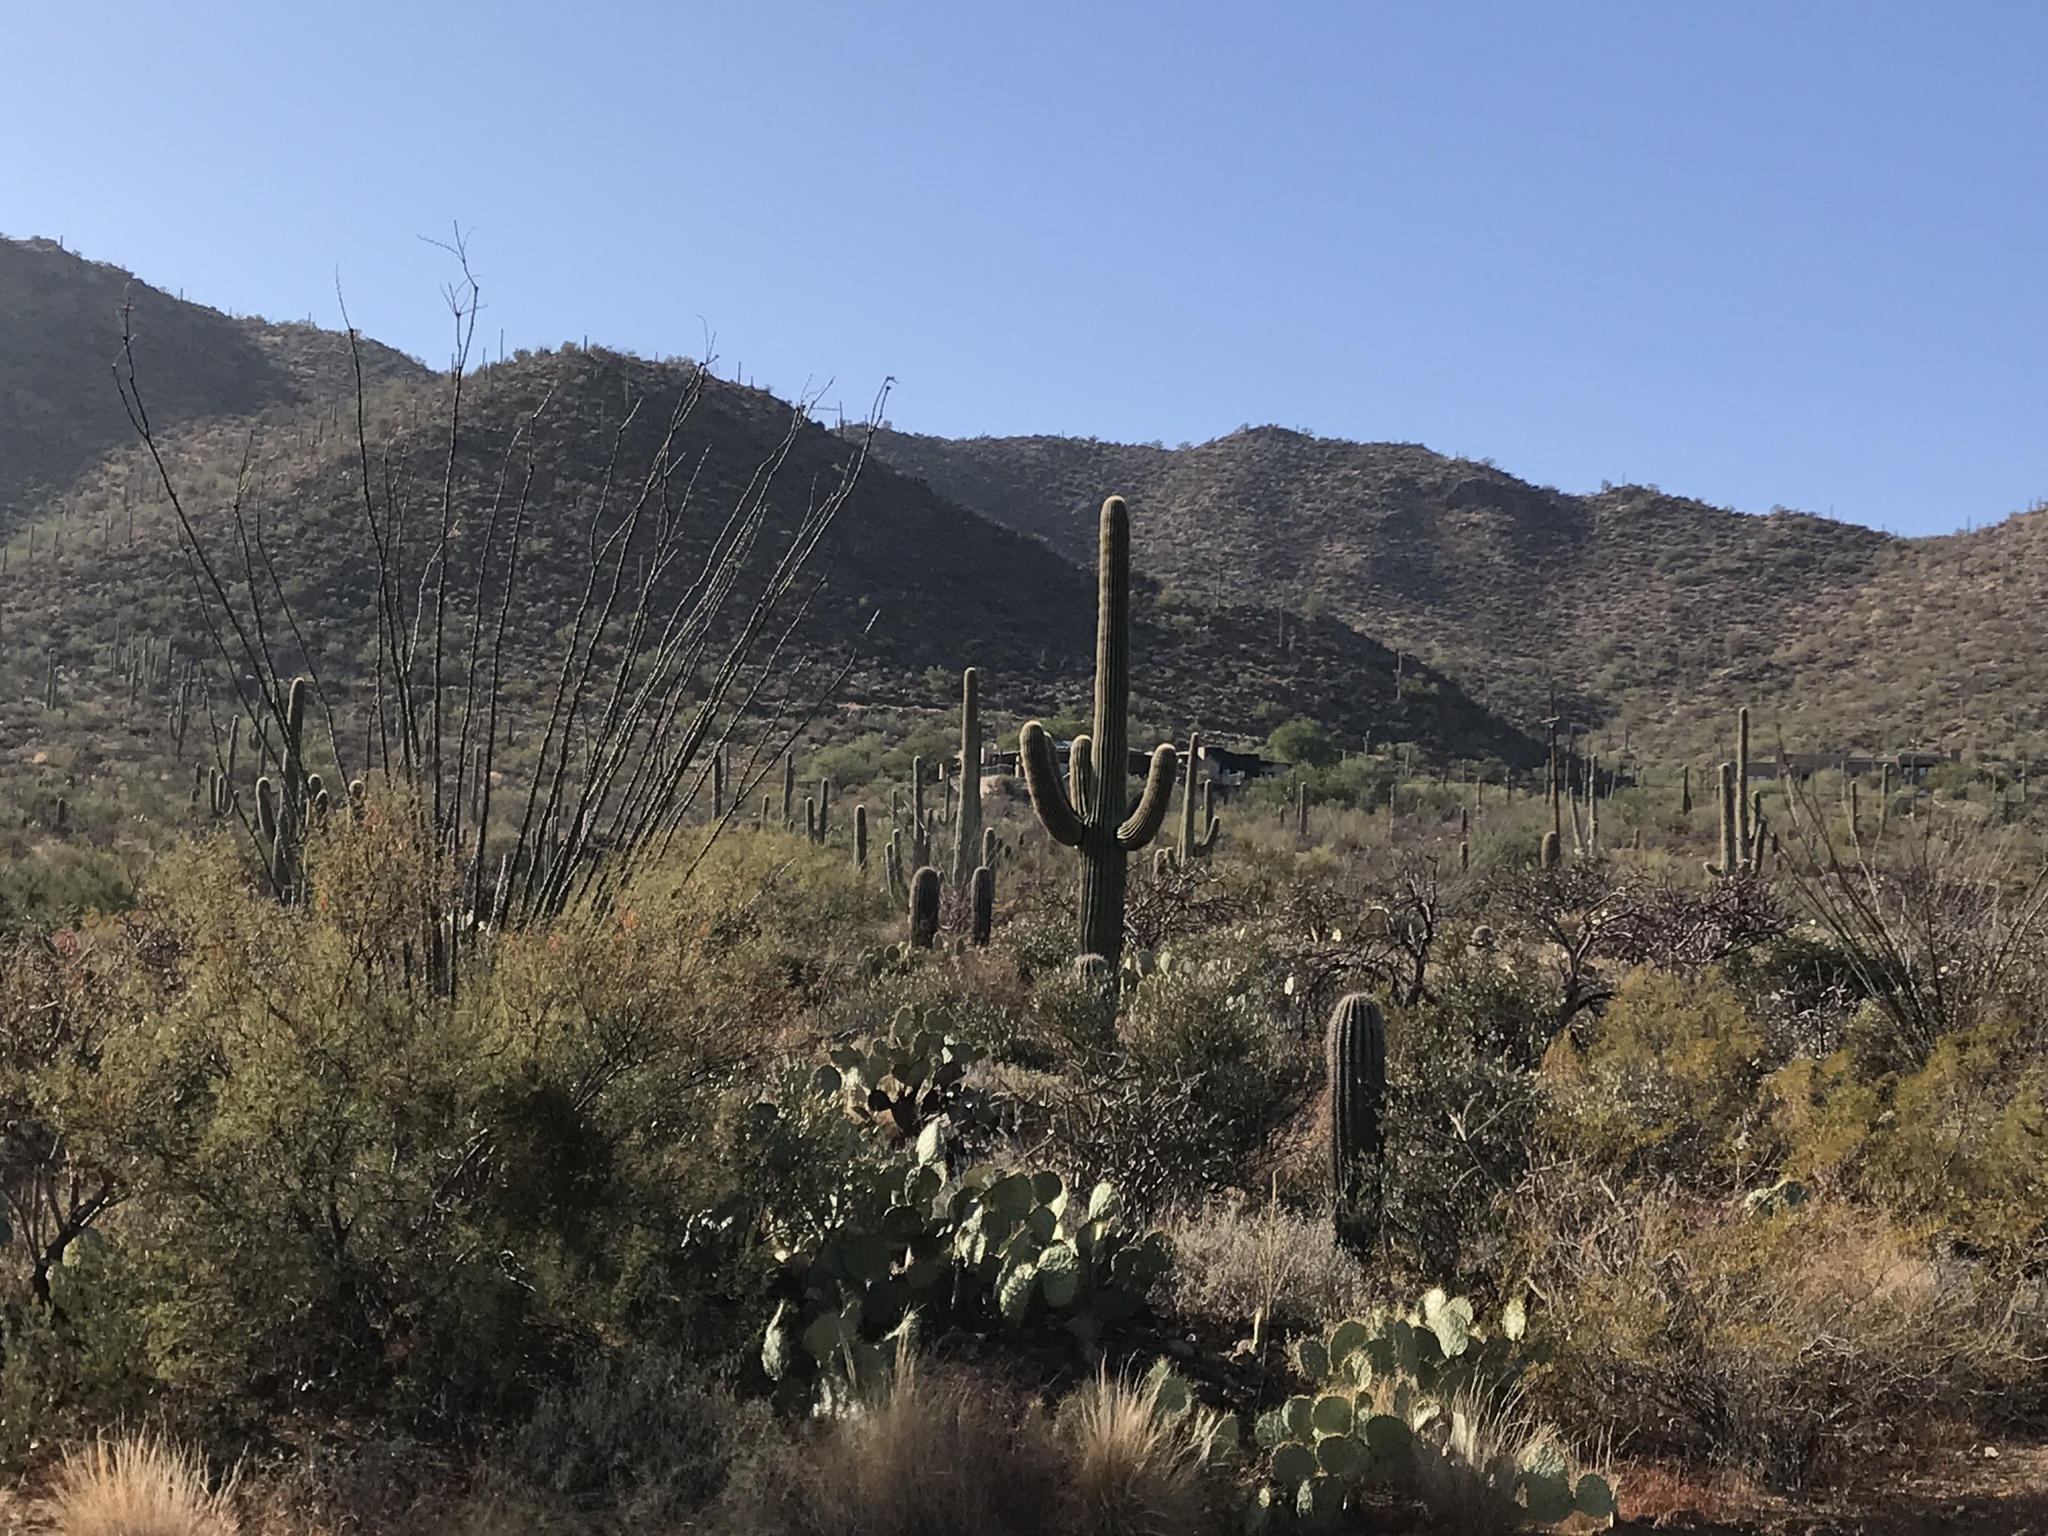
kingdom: Plantae
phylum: Tracheophyta
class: Magnoliopsida
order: Caryophyllales
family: Cactaceae
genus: Carnegiea
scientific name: Carnegiea gigantea
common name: Saguaro
